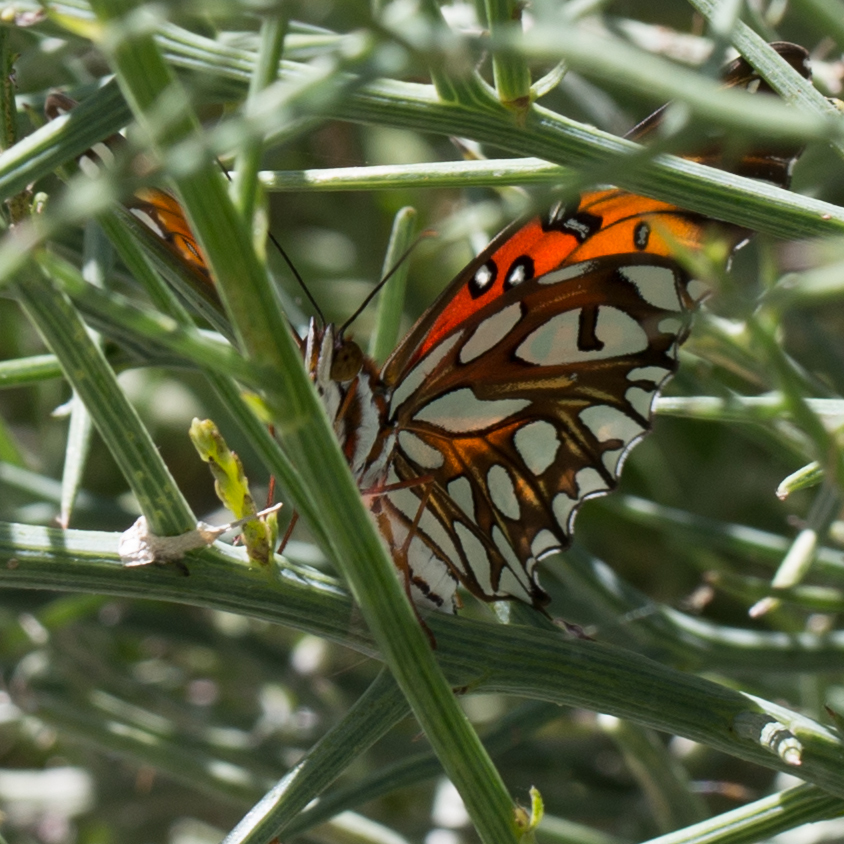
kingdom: Animalia
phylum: Arthropoda
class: Insecta
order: Lepidoptera
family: Nymphalidae
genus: Dione
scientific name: Dione vanillae
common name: Gulf fritillary
